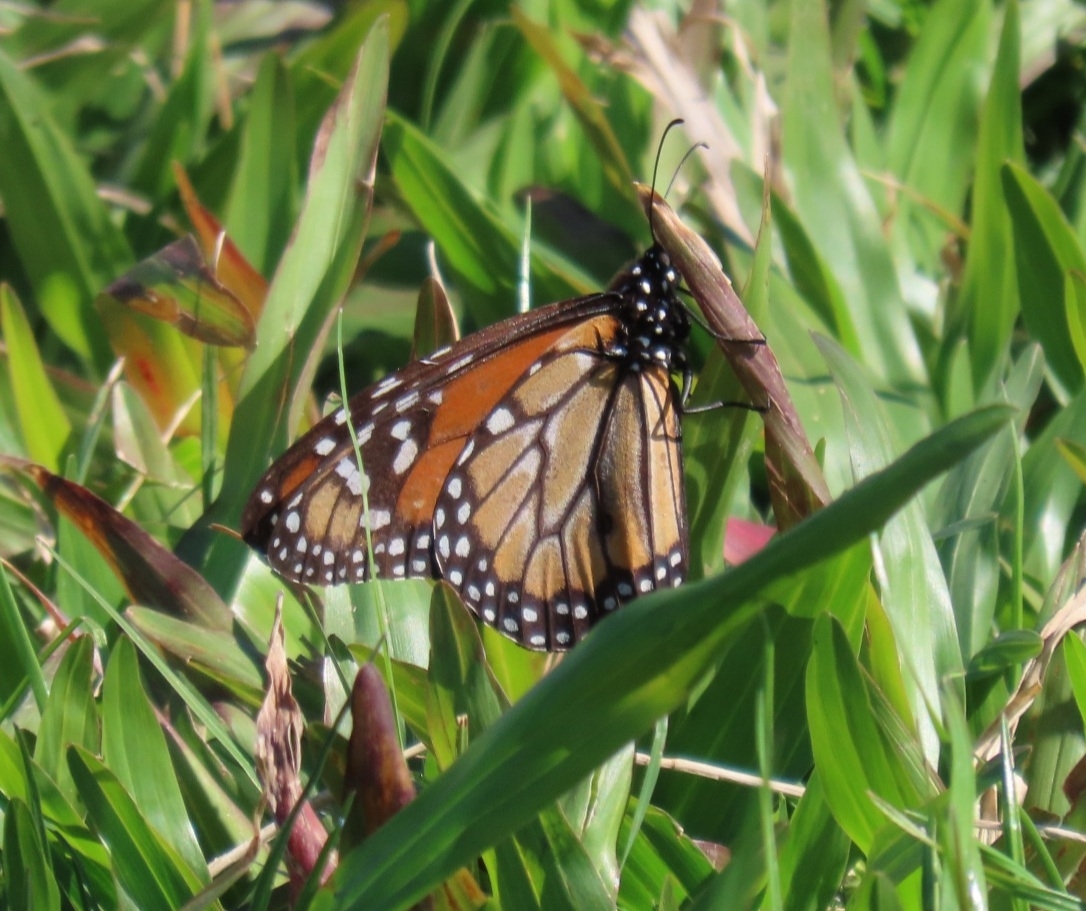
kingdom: Animalia
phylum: Arthropoda
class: Insecta
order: Lepidoptera
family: Nymphalidae
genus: Danaus
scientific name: Danaus erippus
